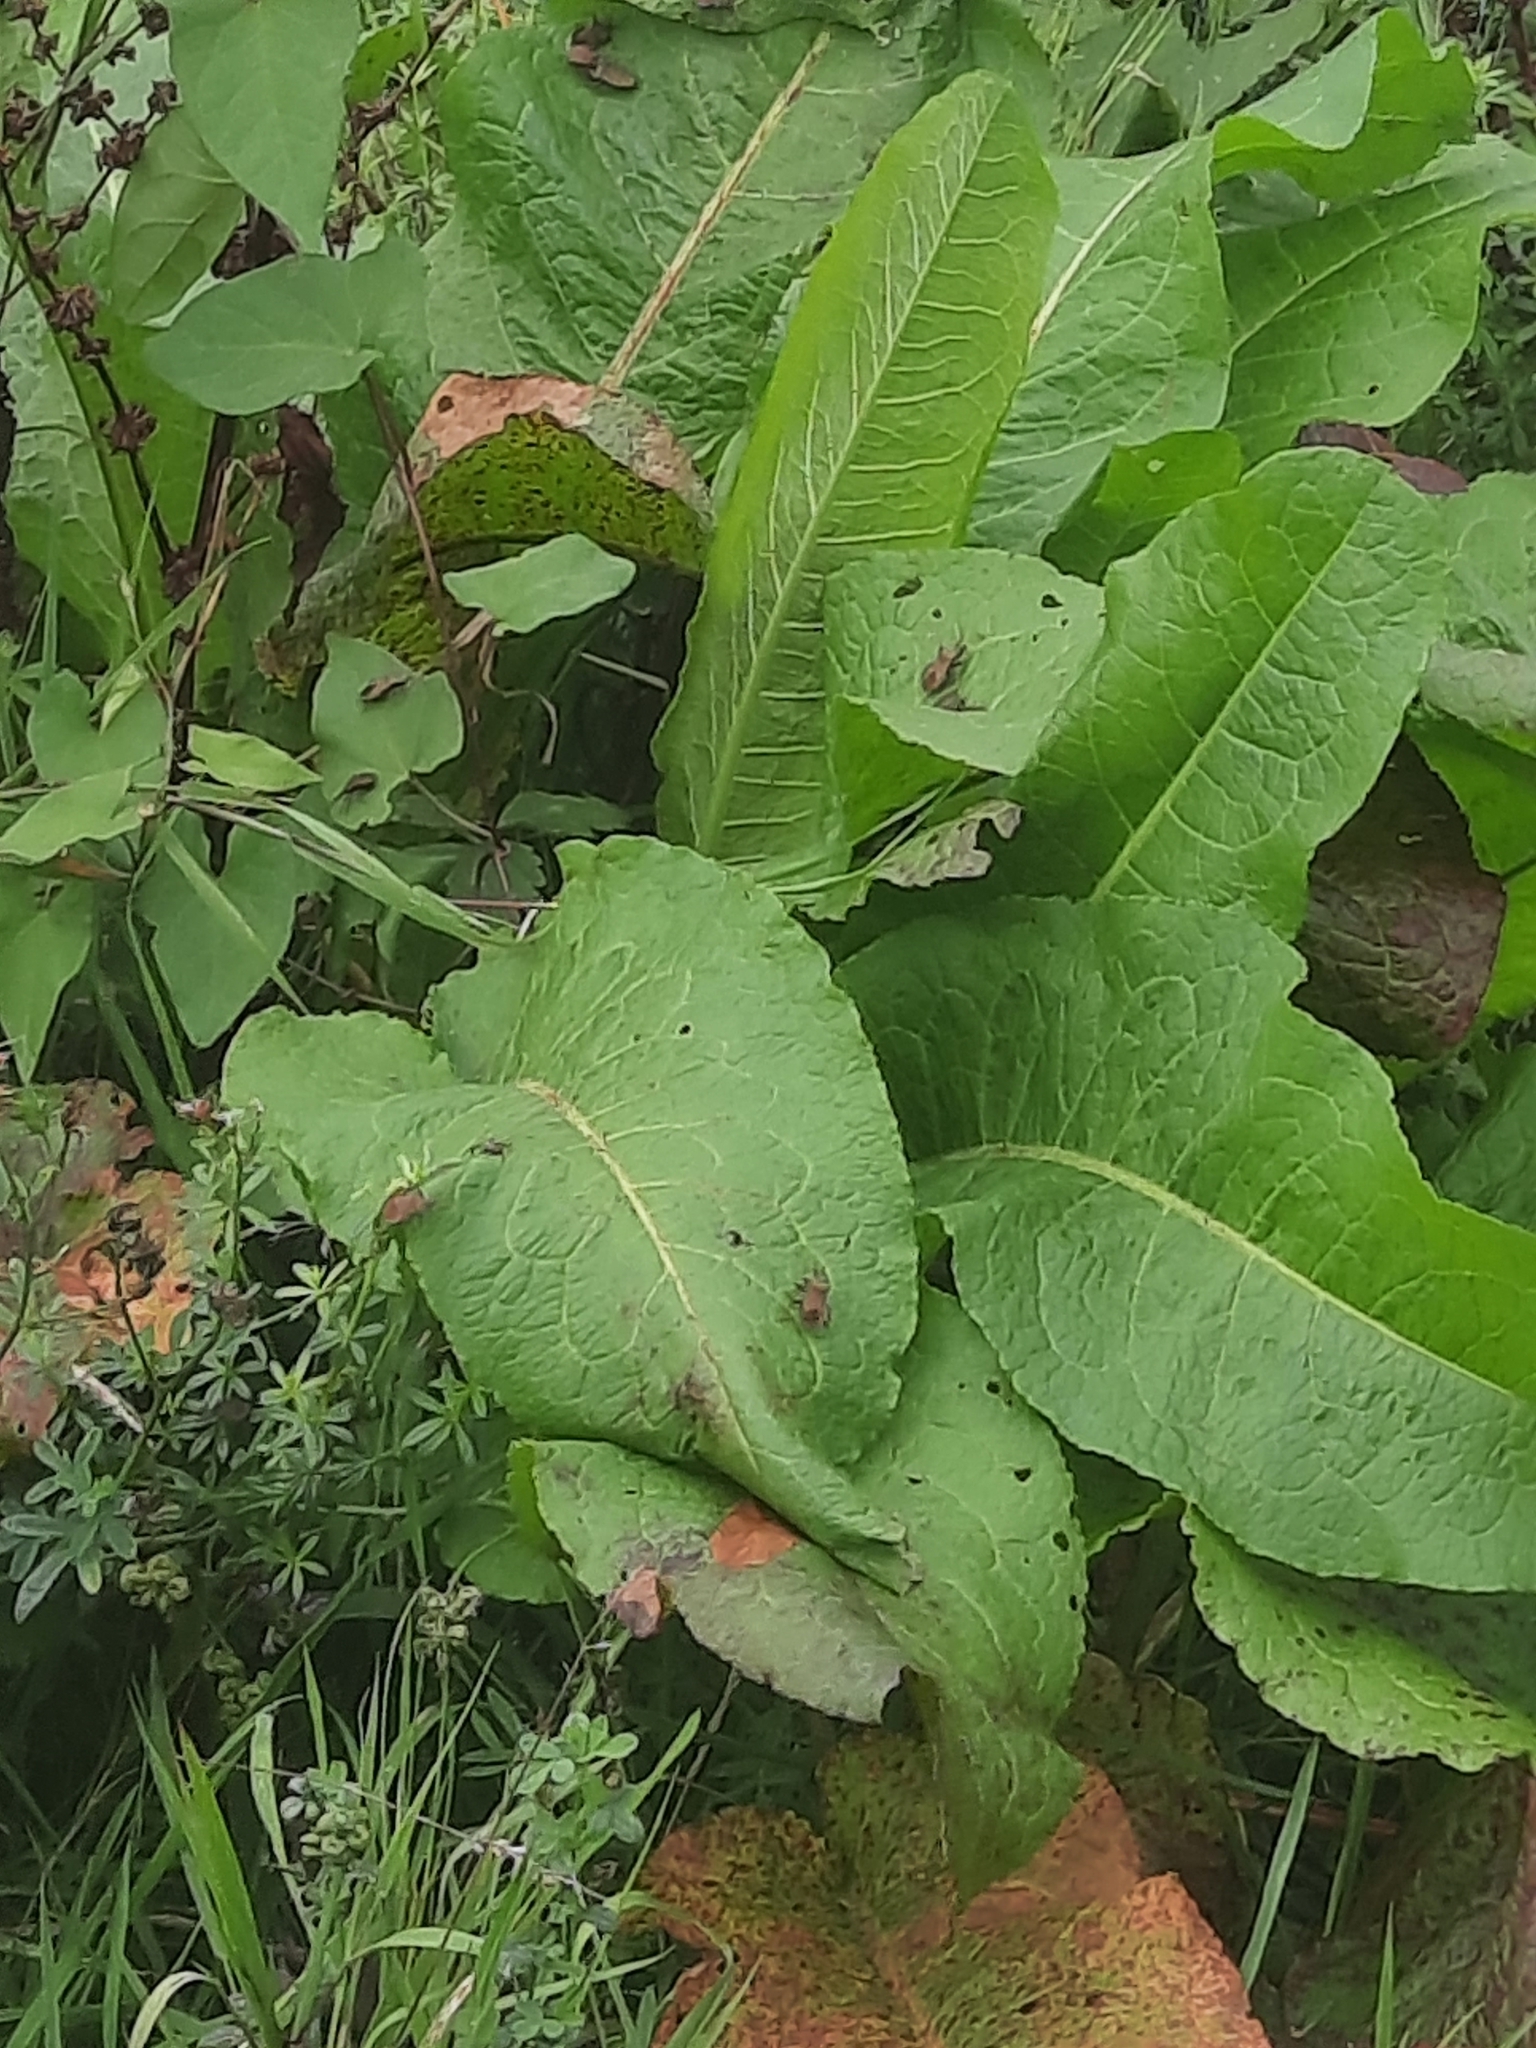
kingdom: Animalia
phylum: Arthropoda
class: Insecta
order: Hemiptera
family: Coreidae
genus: Coreus
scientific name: Coreus marginatus
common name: Dock bug
